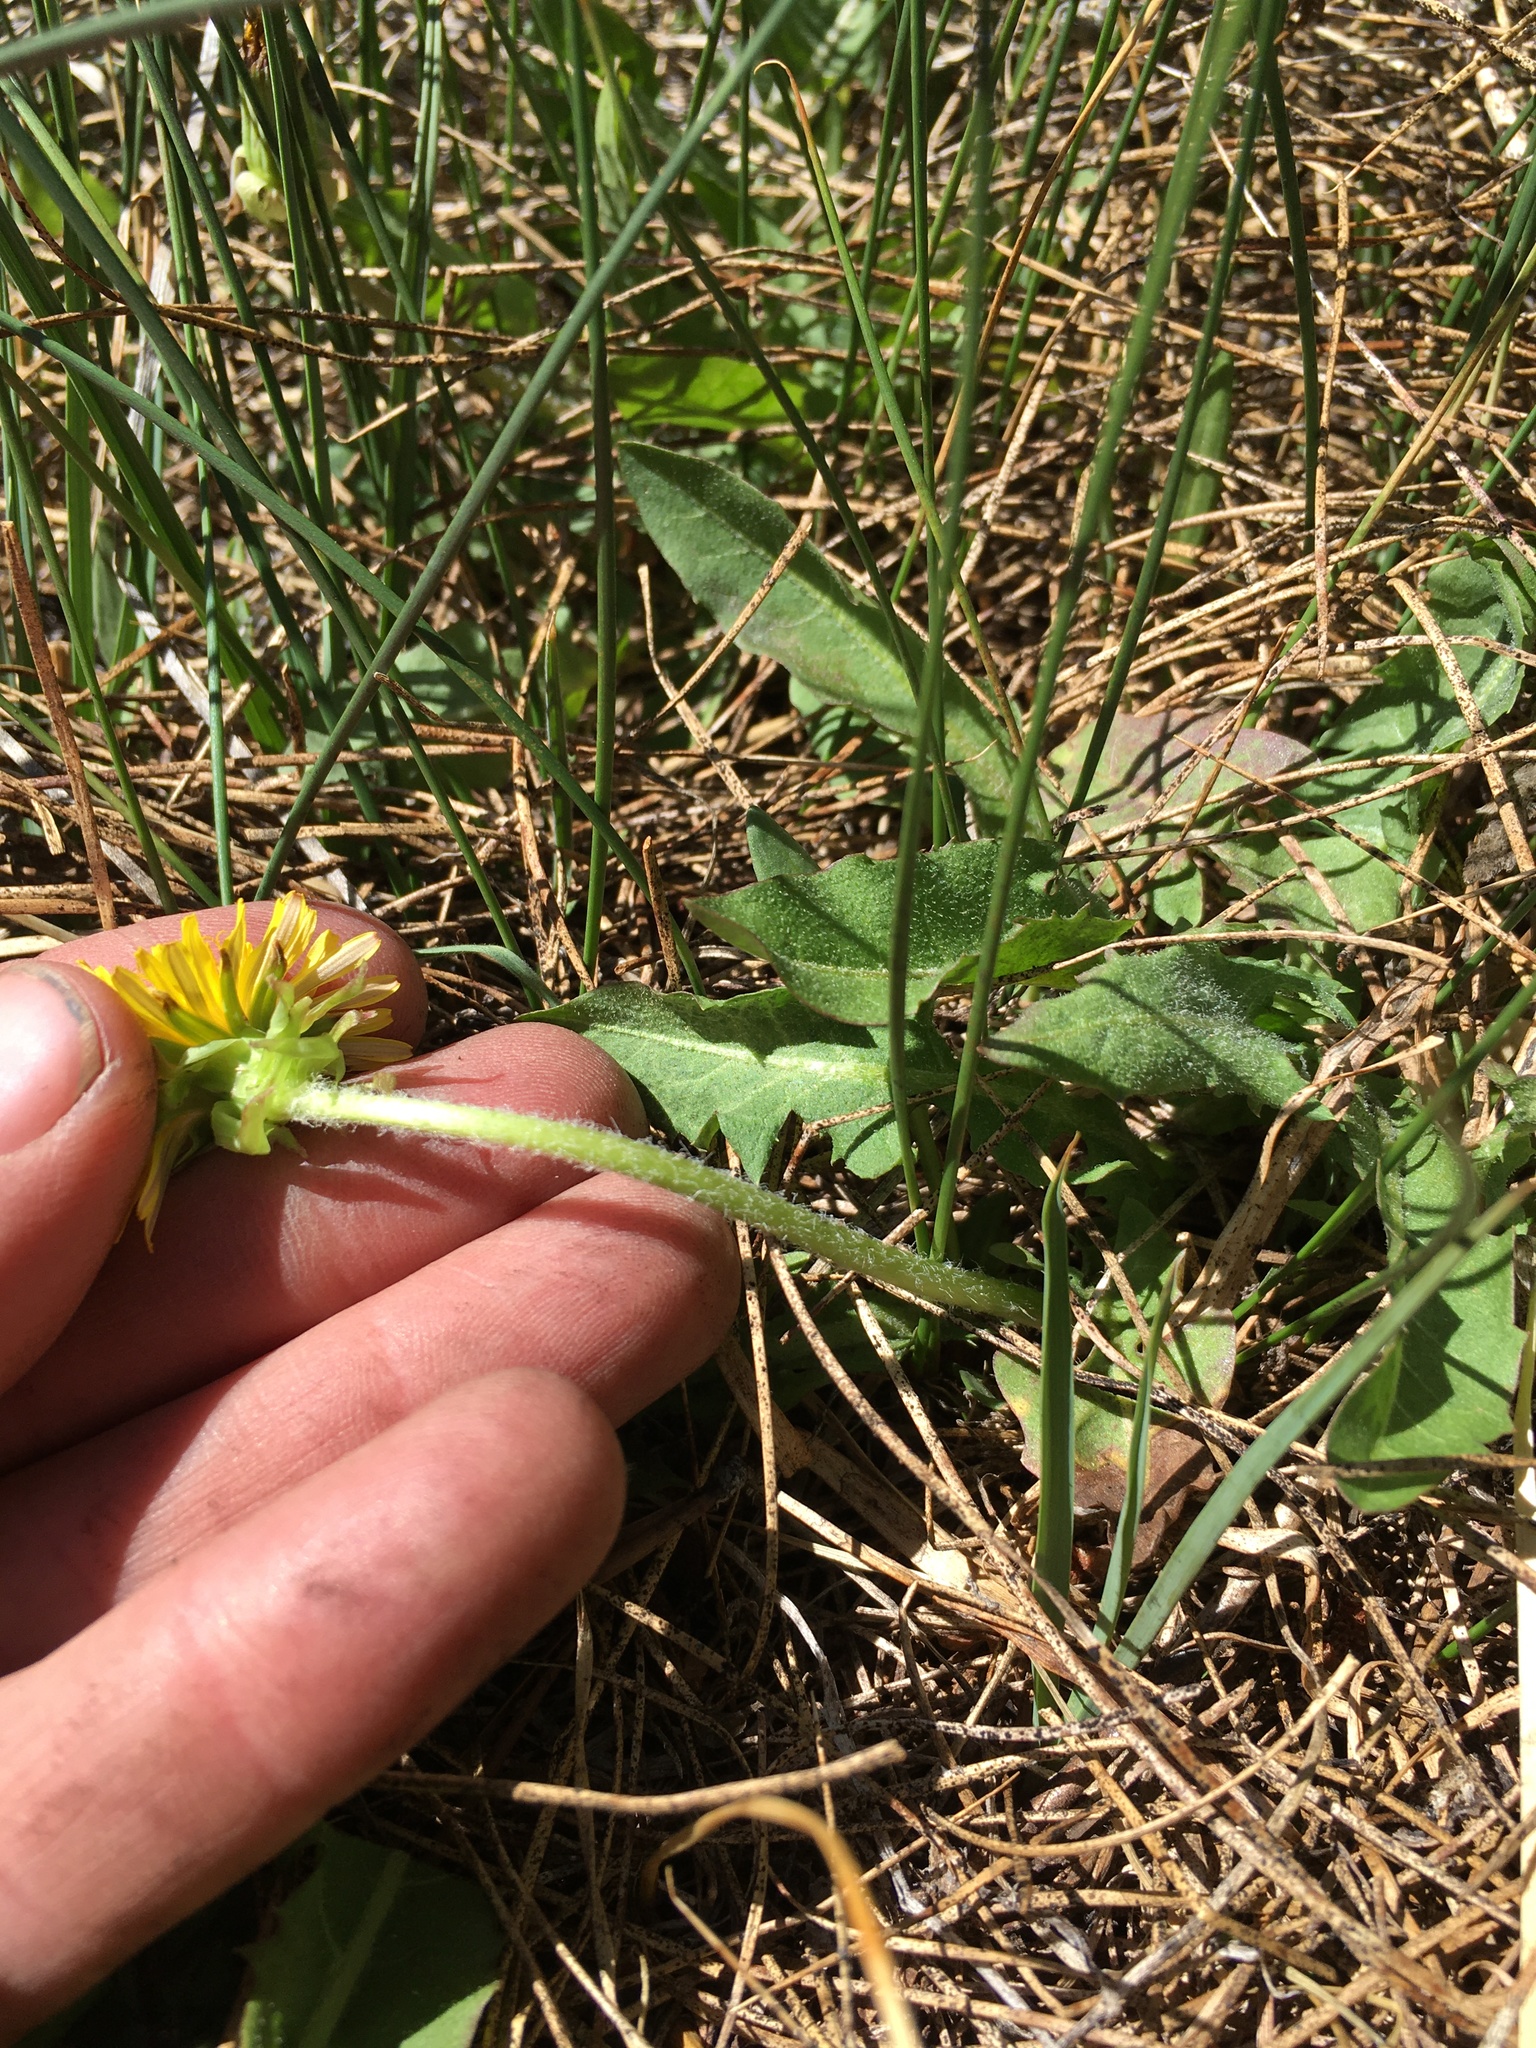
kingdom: Plantae
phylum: Tracheophyta
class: Magnoliopsida
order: Asterales
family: Asteraceae
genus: Taraxacum
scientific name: Taraxacum officinale
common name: Common dandelion
